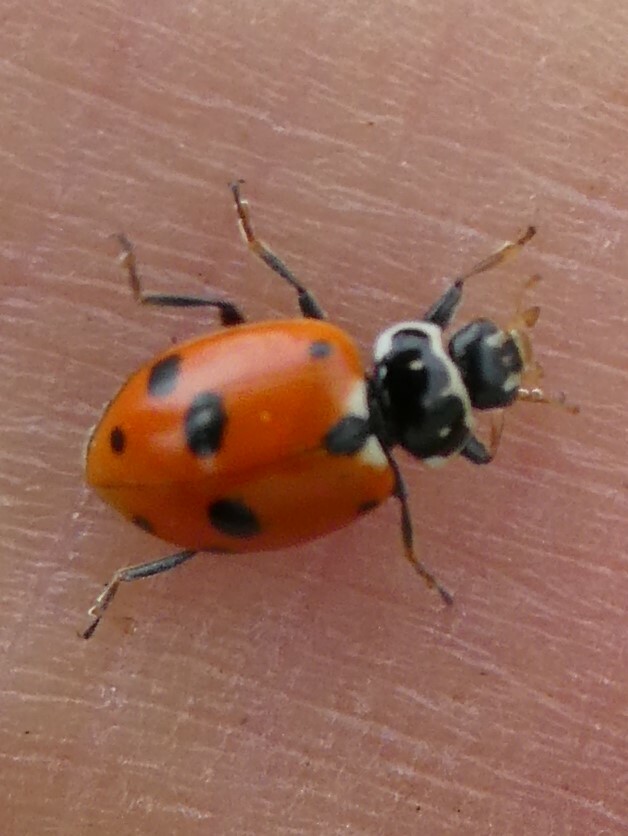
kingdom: Animalia
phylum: Arthropoda
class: Insecta
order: Coleoptera
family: Coccinellidae
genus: Hippodamia
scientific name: Hippodamia variegata
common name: Ladybird beetle
